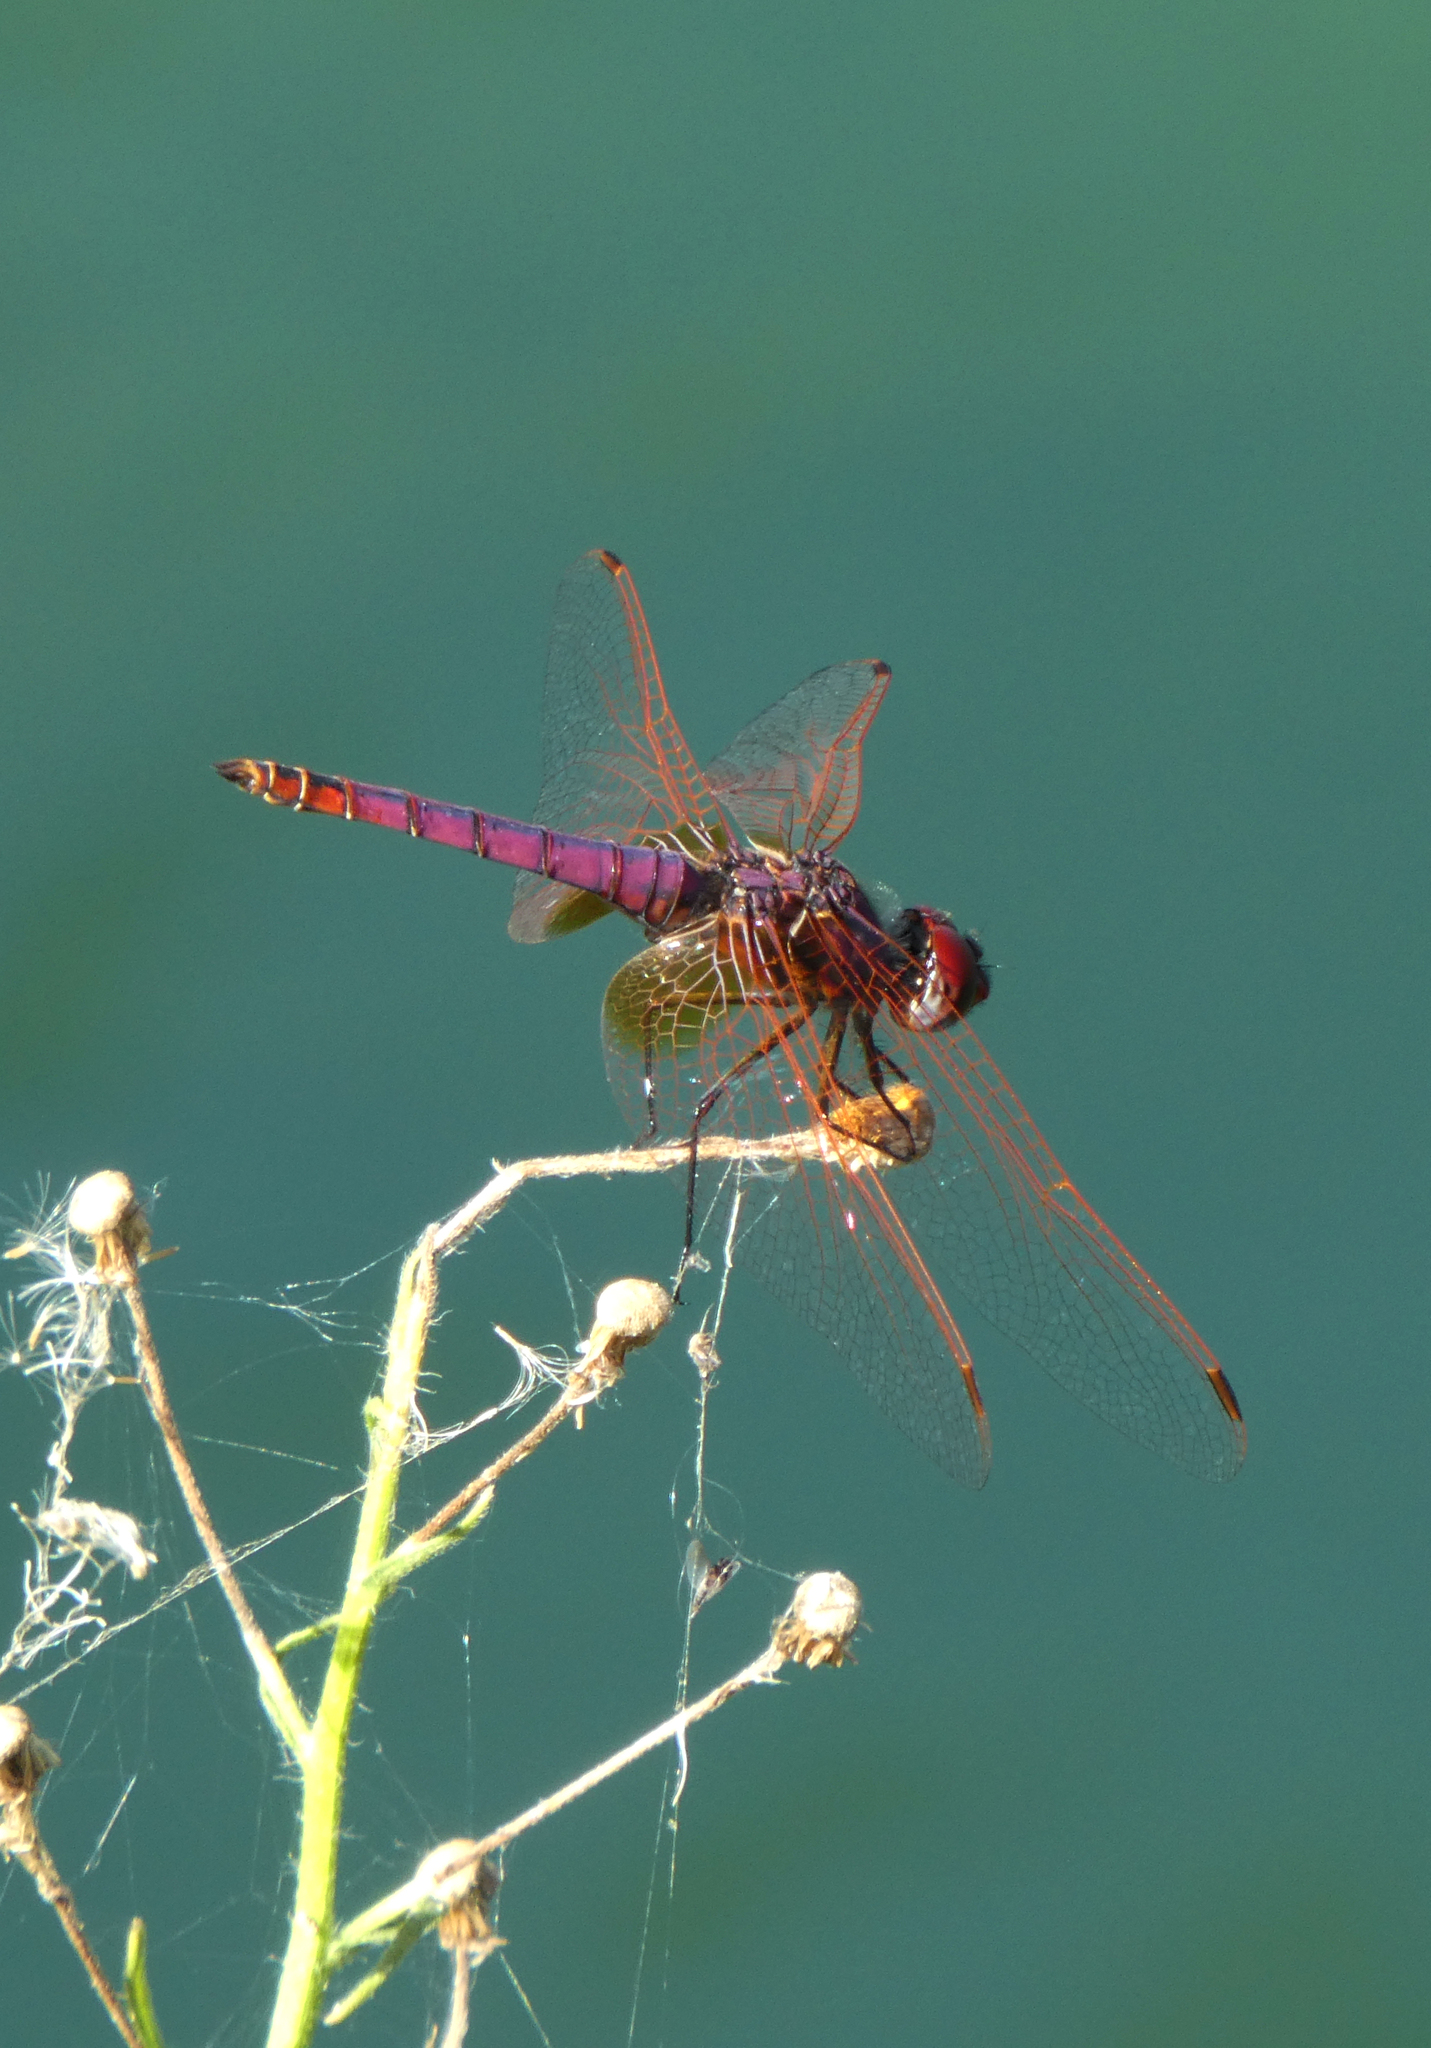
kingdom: Animalia
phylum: Arthropoda
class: Insecta
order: Odonata
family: Libellulidae
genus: Trithemis
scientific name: Trithemis annulata
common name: Violet dropwing
